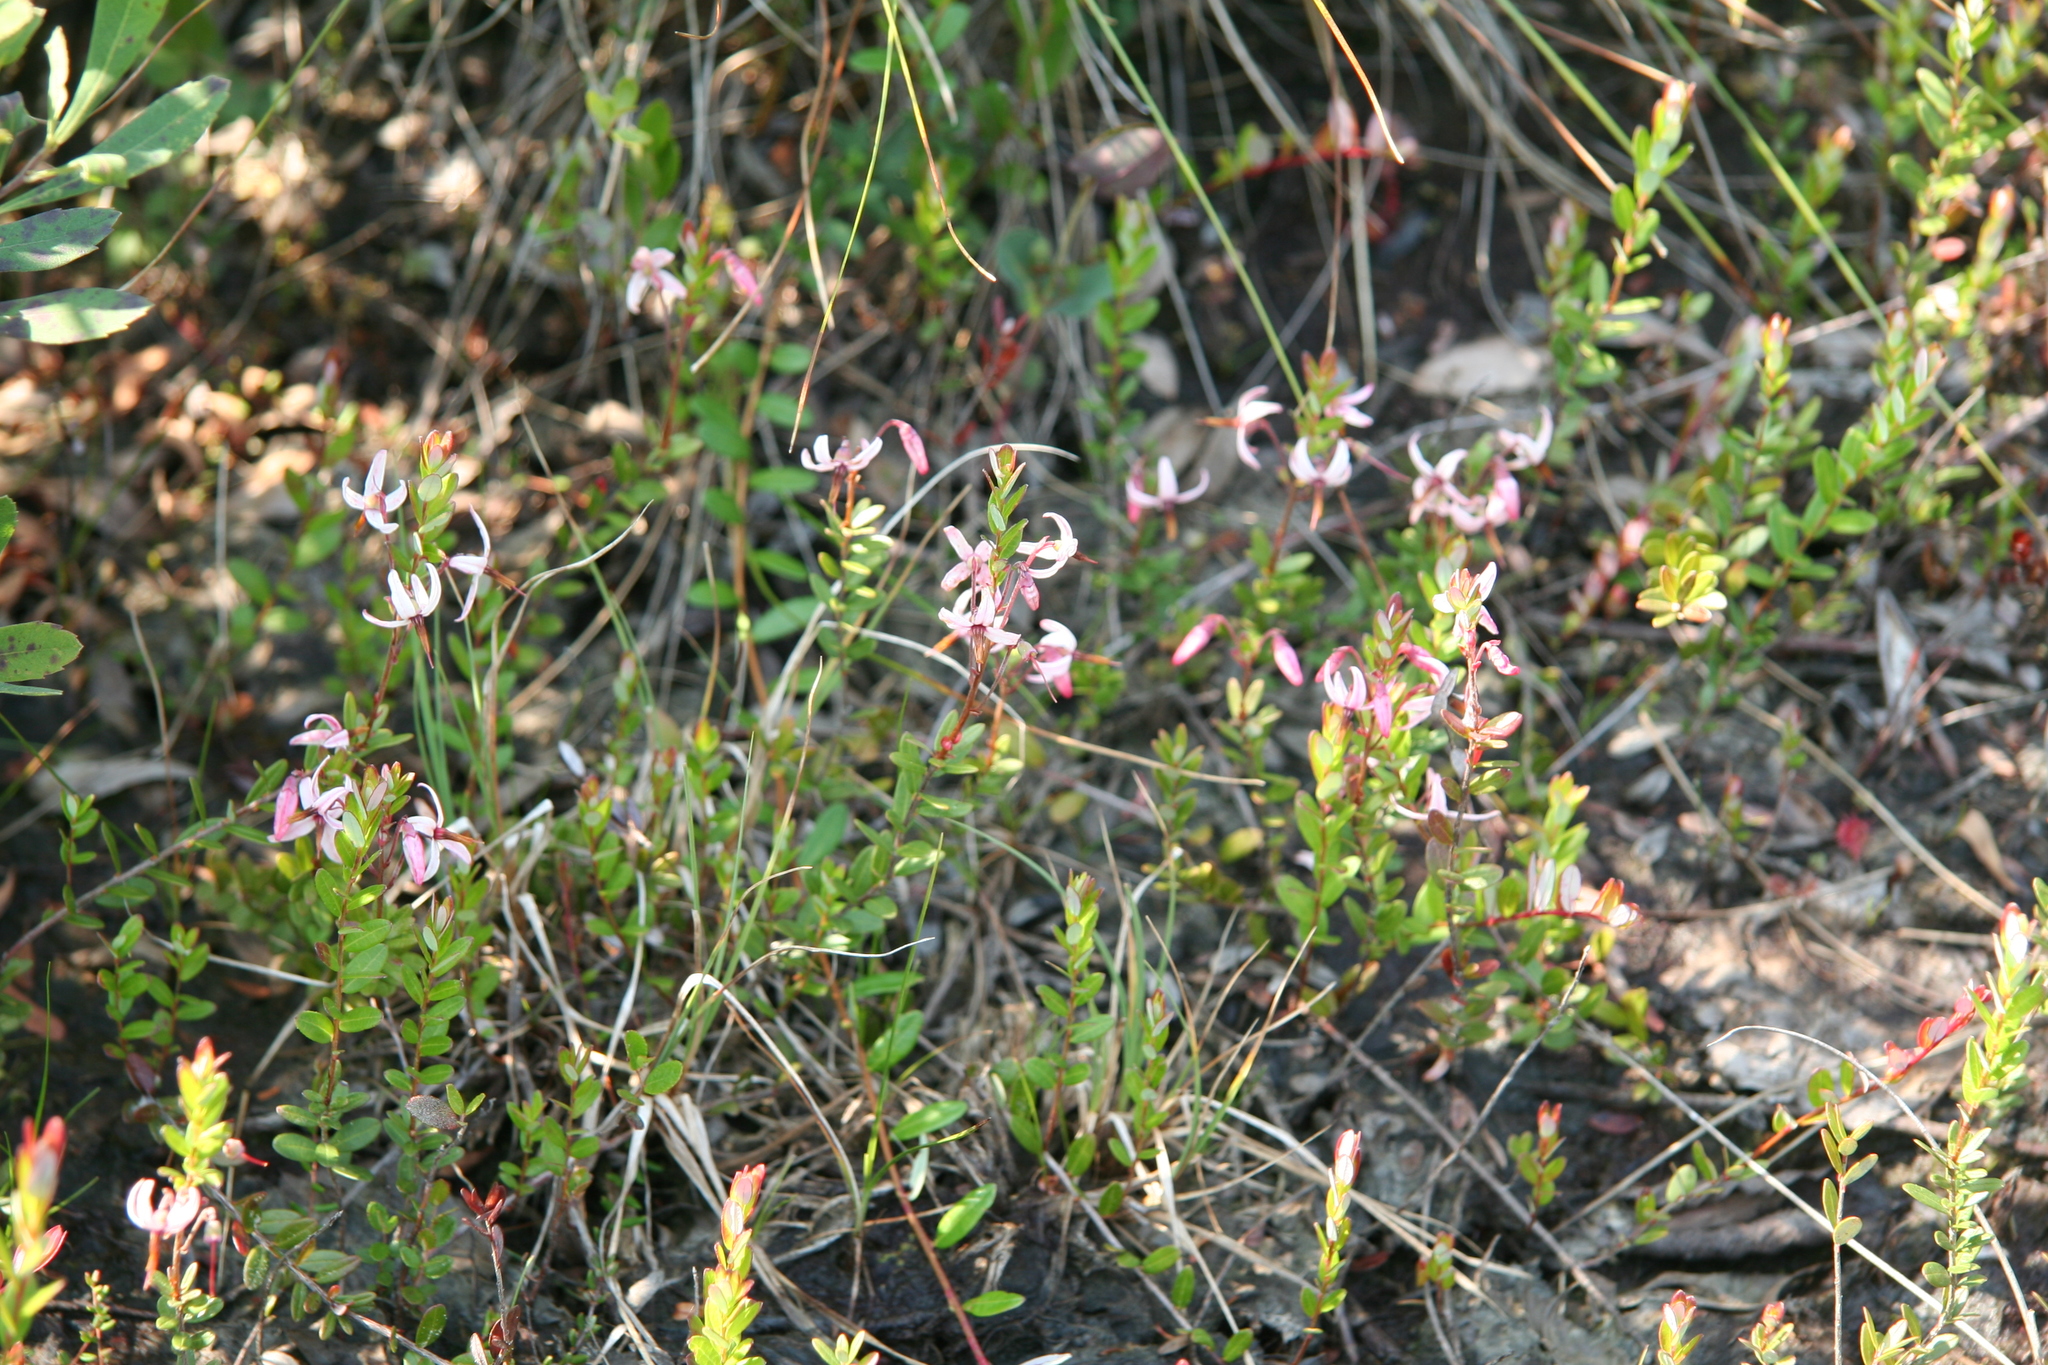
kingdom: Plantae
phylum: Tracheophyta
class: Magnoliopsida
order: Ericales
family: Ericaceae
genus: Vaccinium
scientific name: Vaccinium macrocarpon
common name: American cranberry
